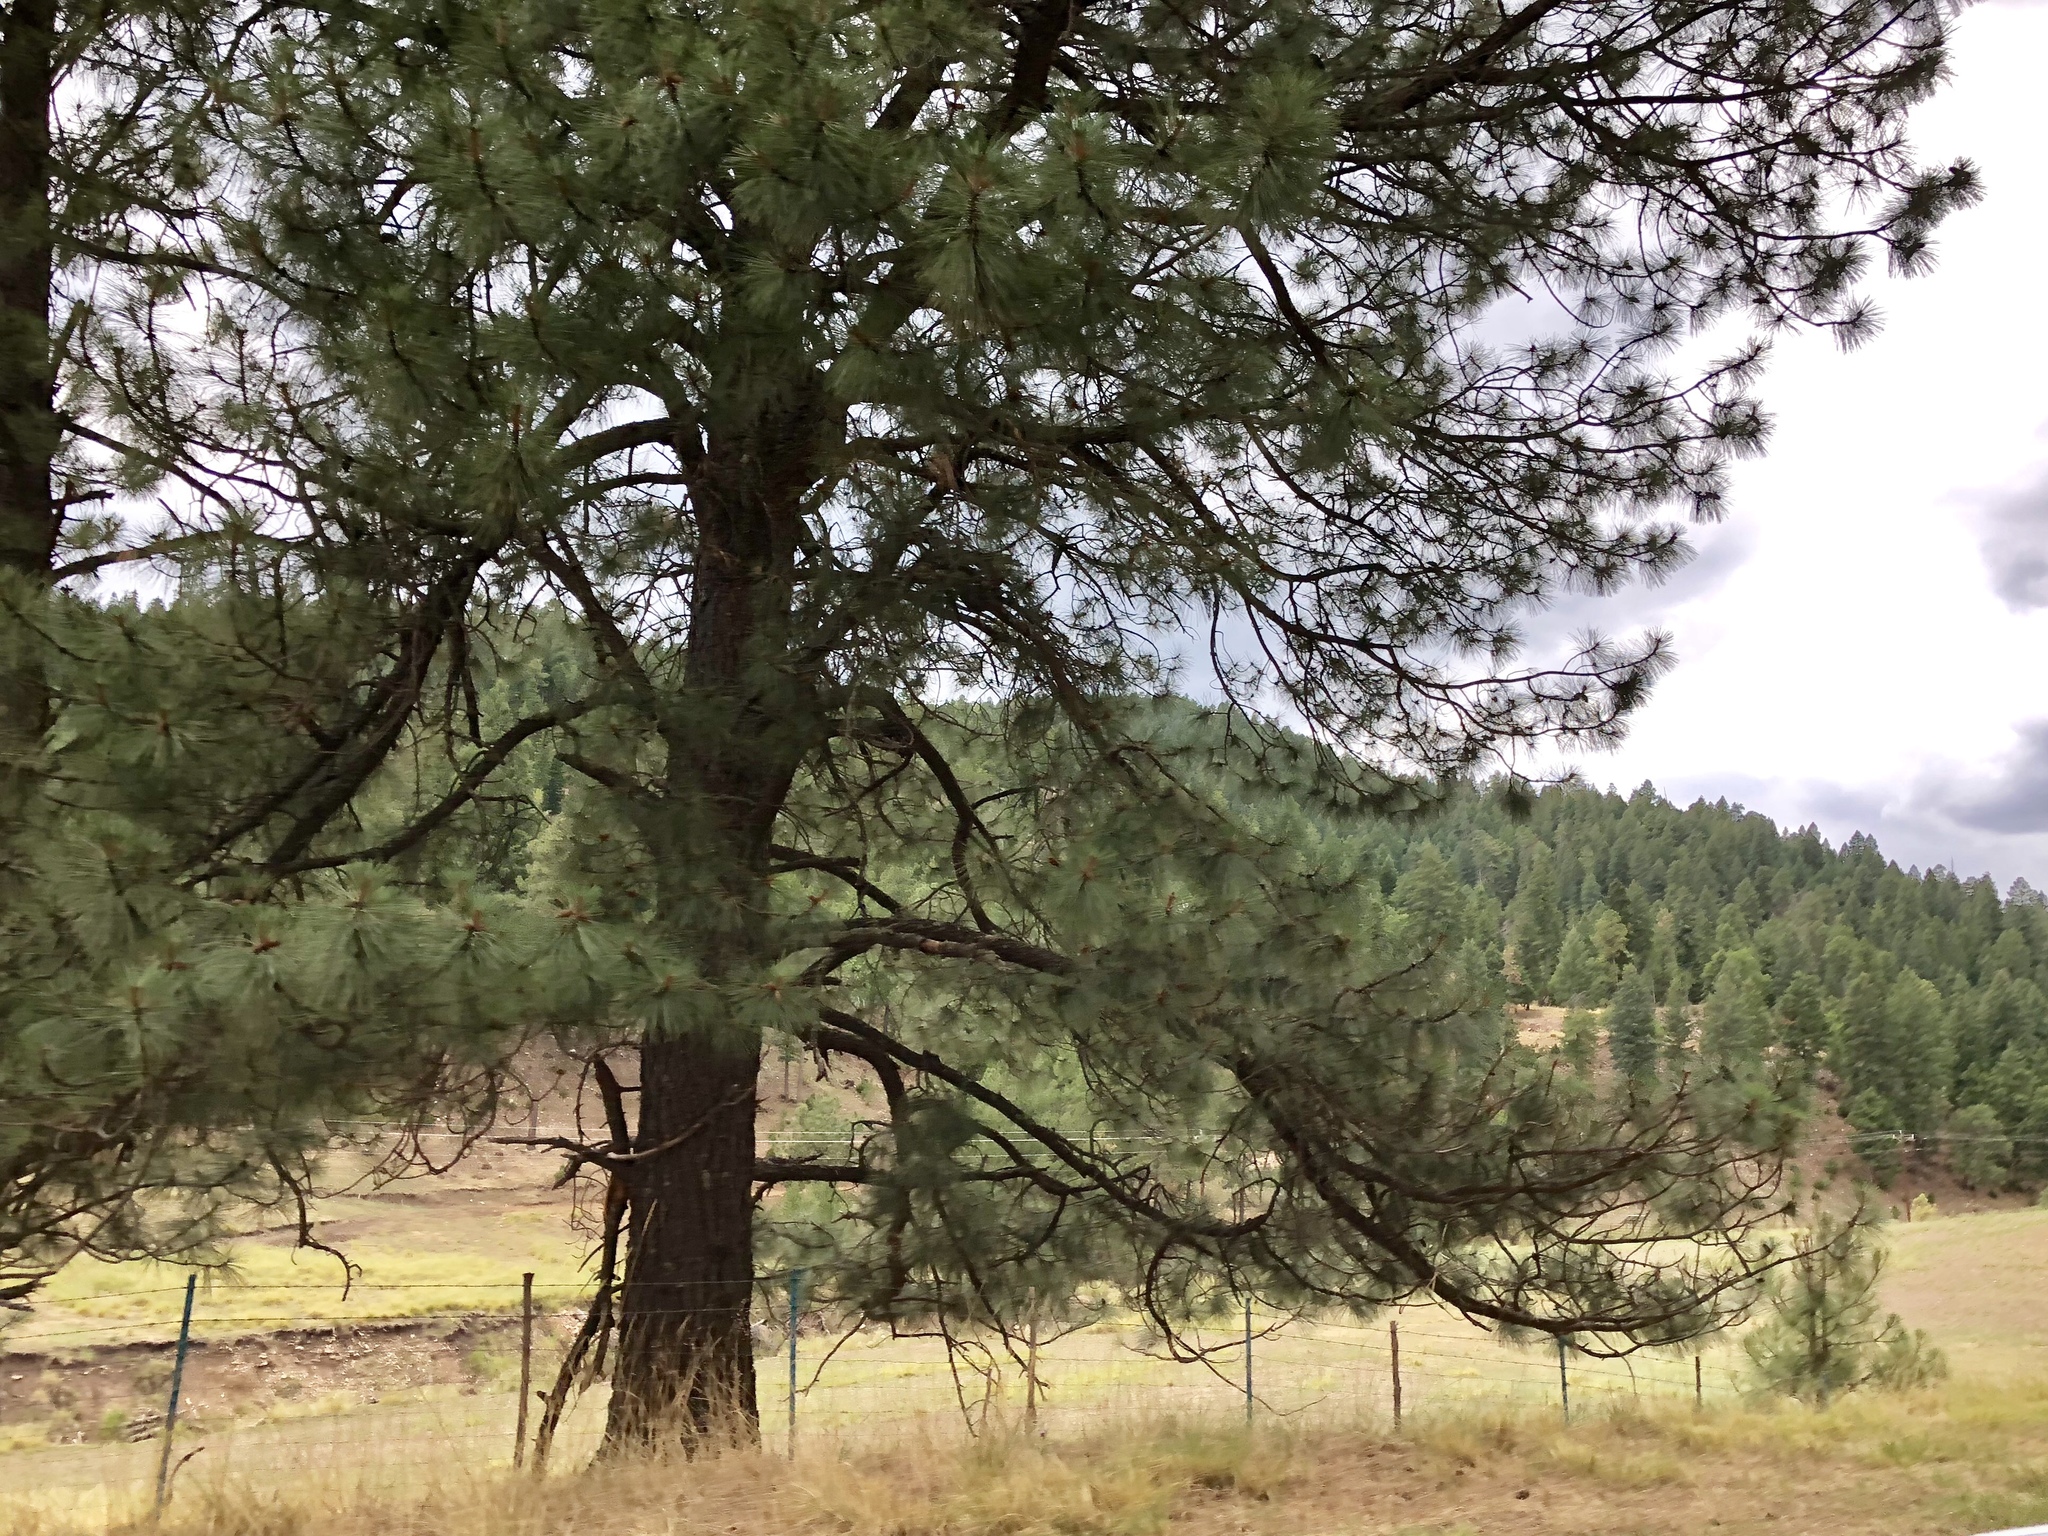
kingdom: Plantae
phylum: Tracheophyta
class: Pinopsida
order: Pinales
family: Pinaceae
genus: Pinus
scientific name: Pinus ponderosa
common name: Western yellow-pine
